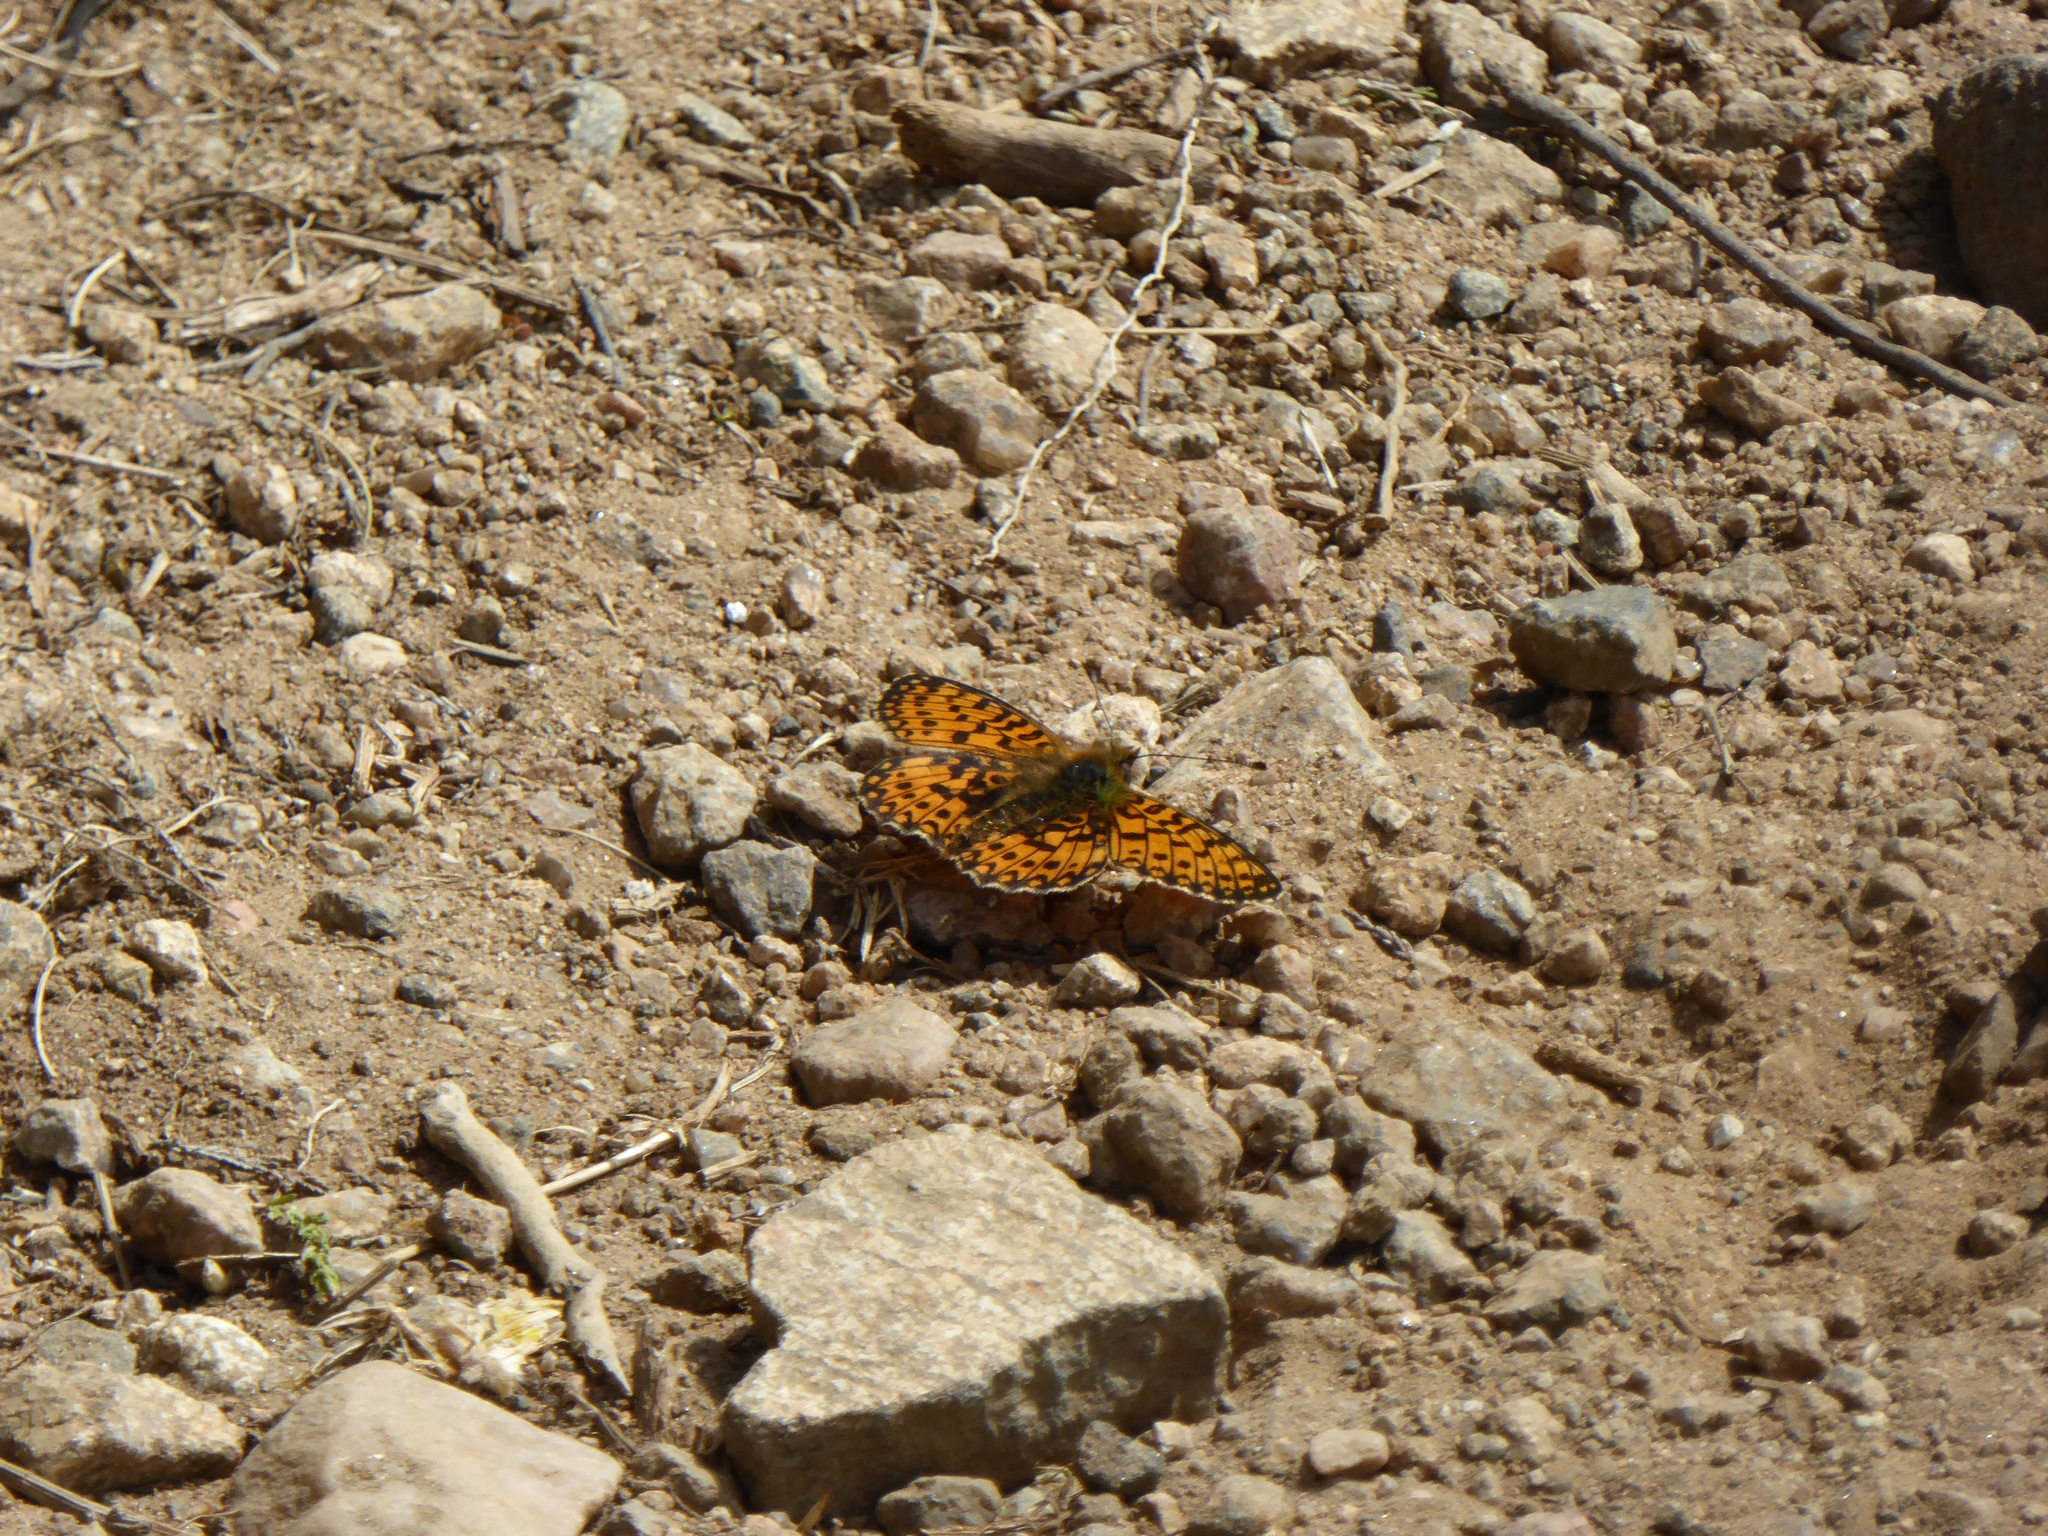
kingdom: Animalia
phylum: Arthropoda
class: Insecta
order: Lepidoptera
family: Nymphalidae
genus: Boloria
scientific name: Boloria selene
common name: Small pearl-bordered fritillary
